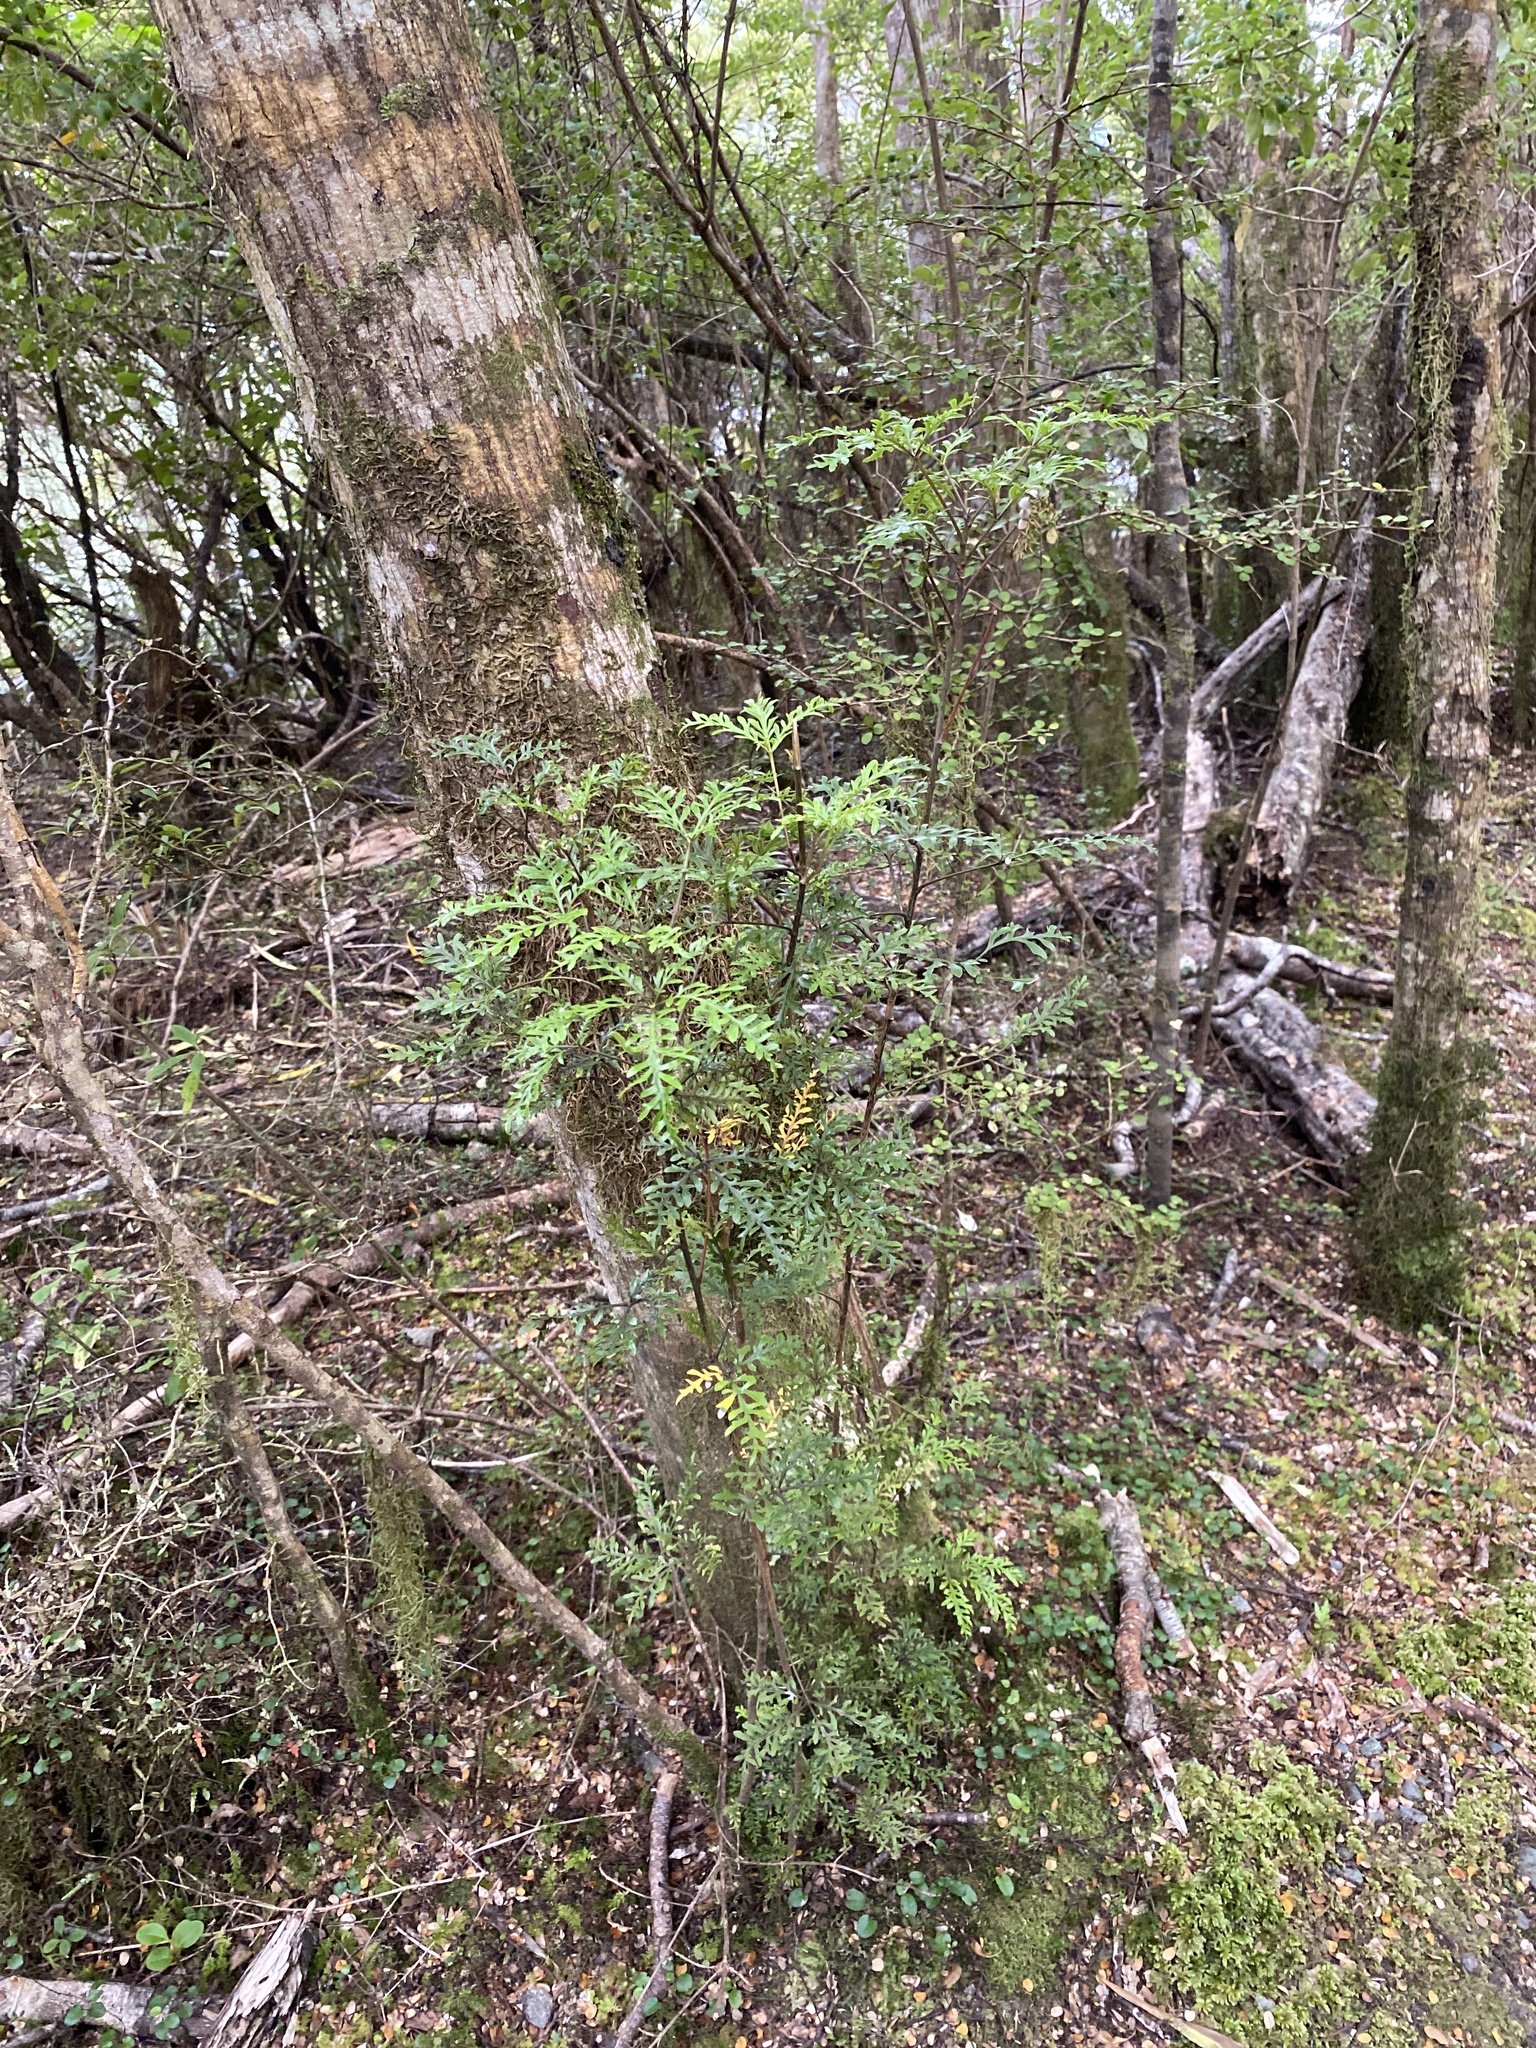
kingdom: Plantae
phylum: Tracheophyta
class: Magnoliopsida
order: Apiales
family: Araliaceae
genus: Raukaua
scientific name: Raukaua simplex
